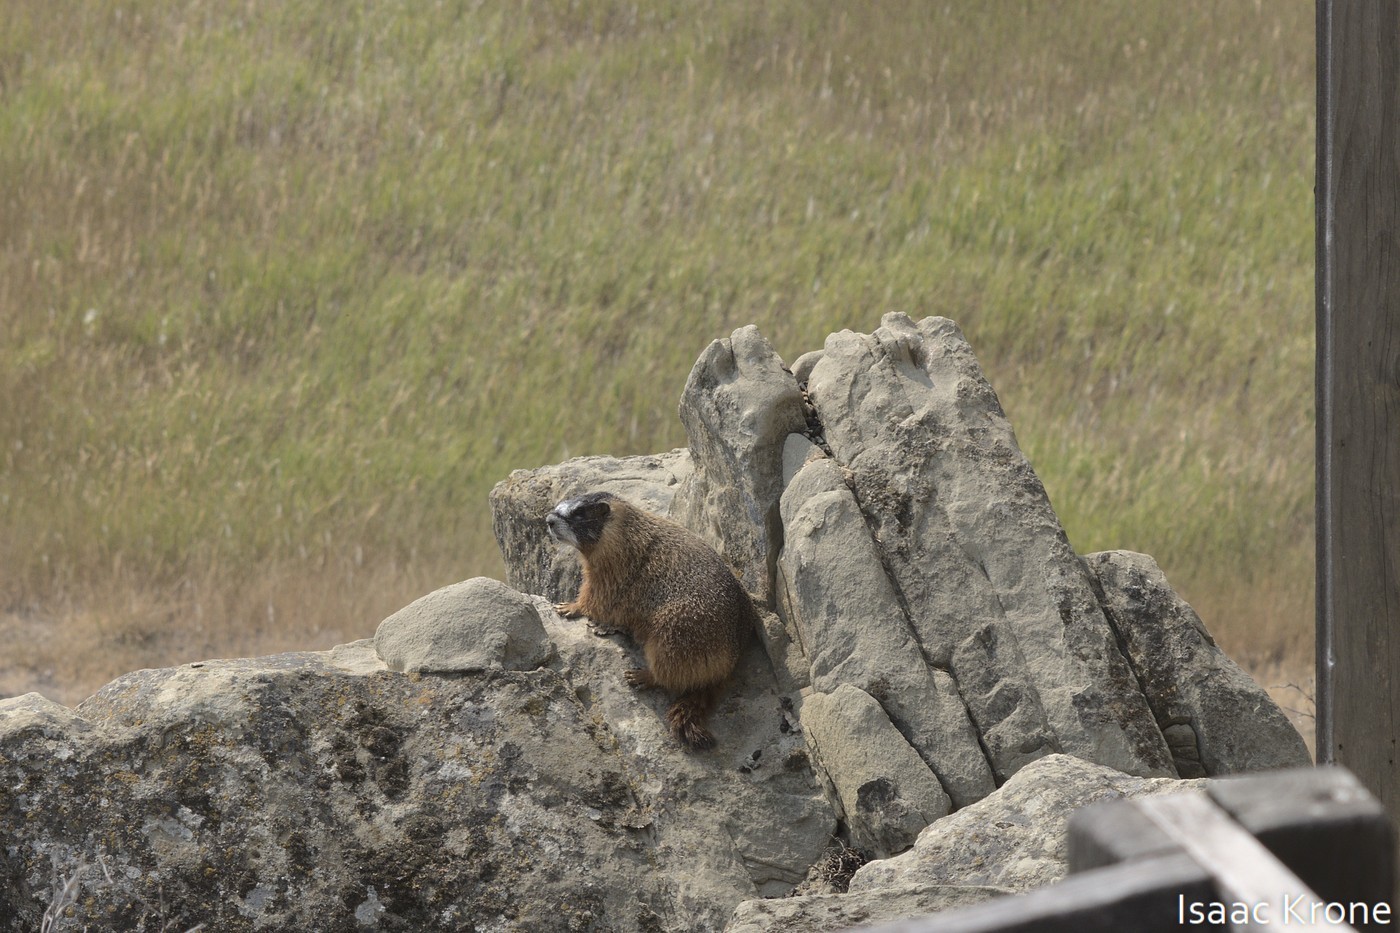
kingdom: Animalia
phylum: Chordata
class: Mammalia
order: Rodentia
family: Sciuridae
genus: Marmota
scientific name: Marmota flaviventris
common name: Yellow-bellied marmot
